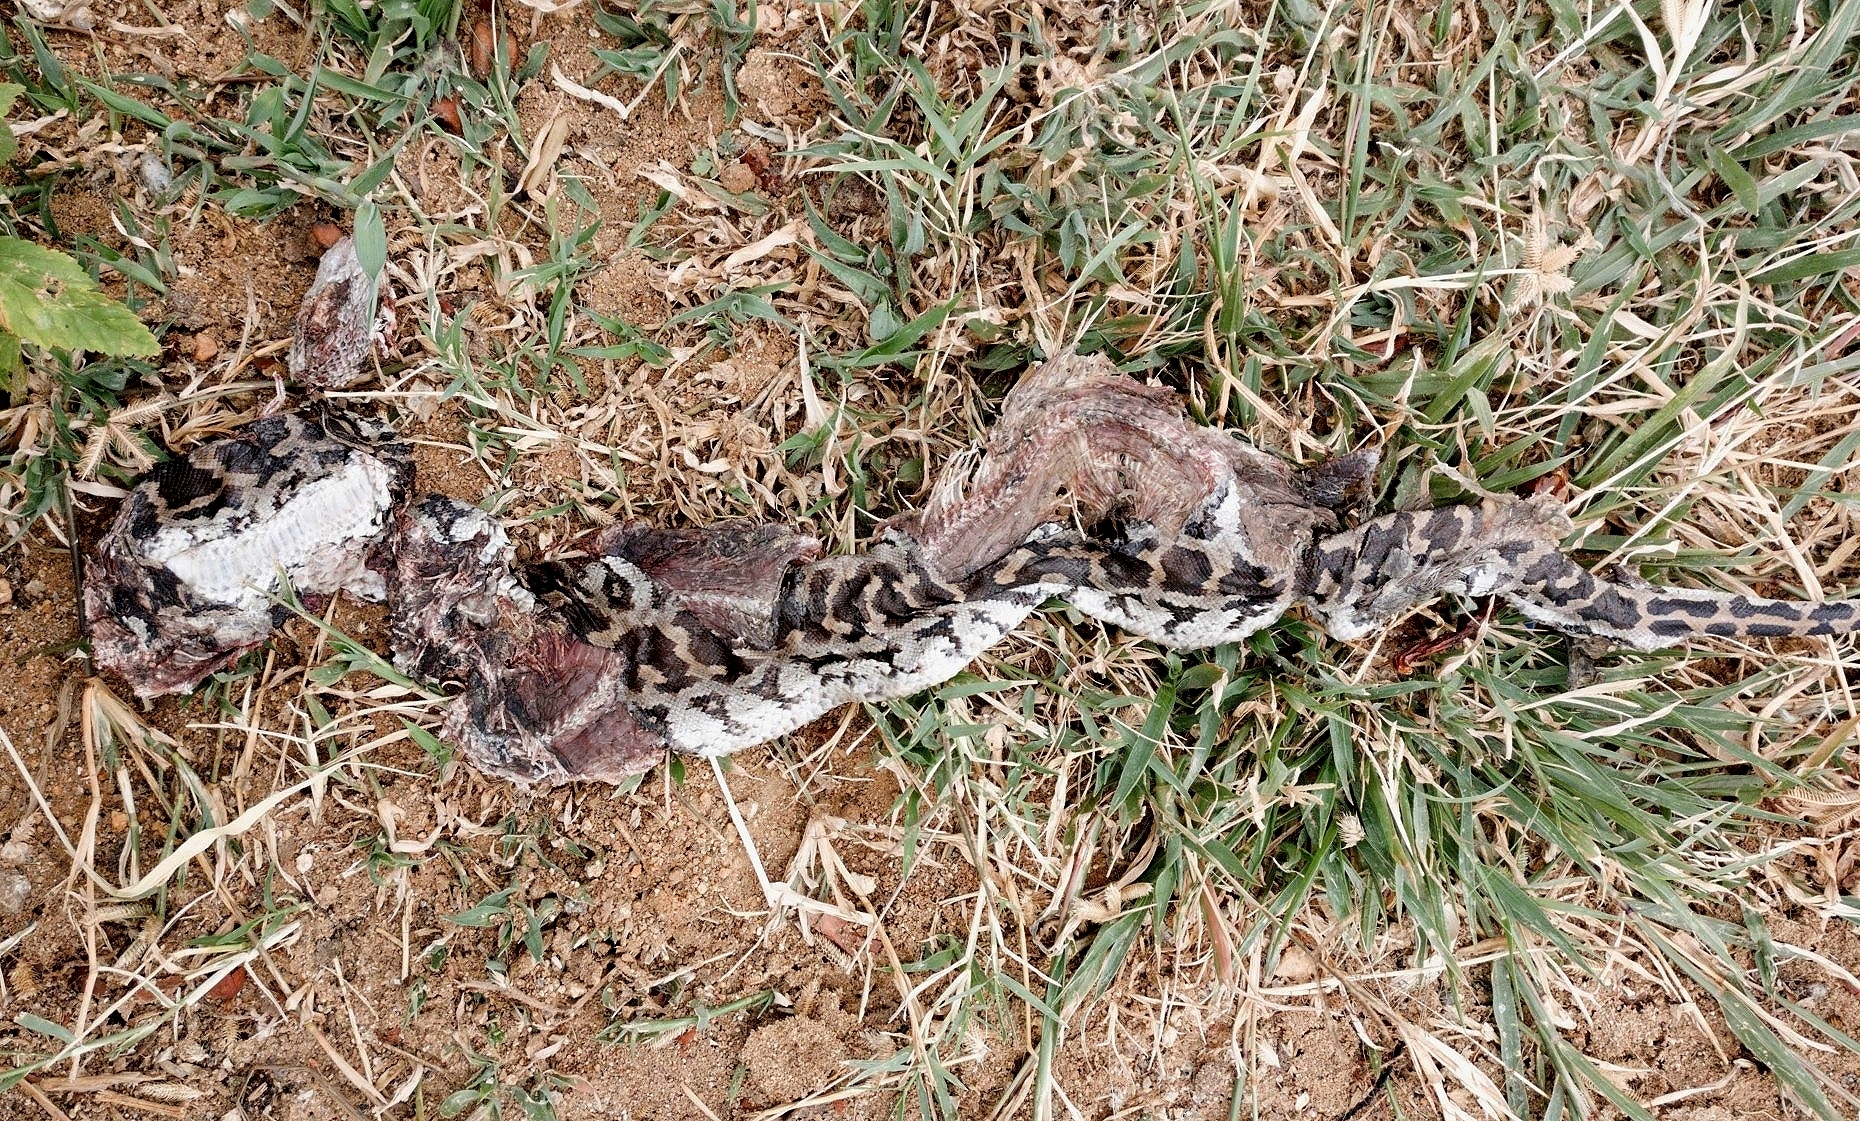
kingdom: Animalia
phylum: Chordata
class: Squamata
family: Pythonidae
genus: Python
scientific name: Python molurus
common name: Indian rock python
